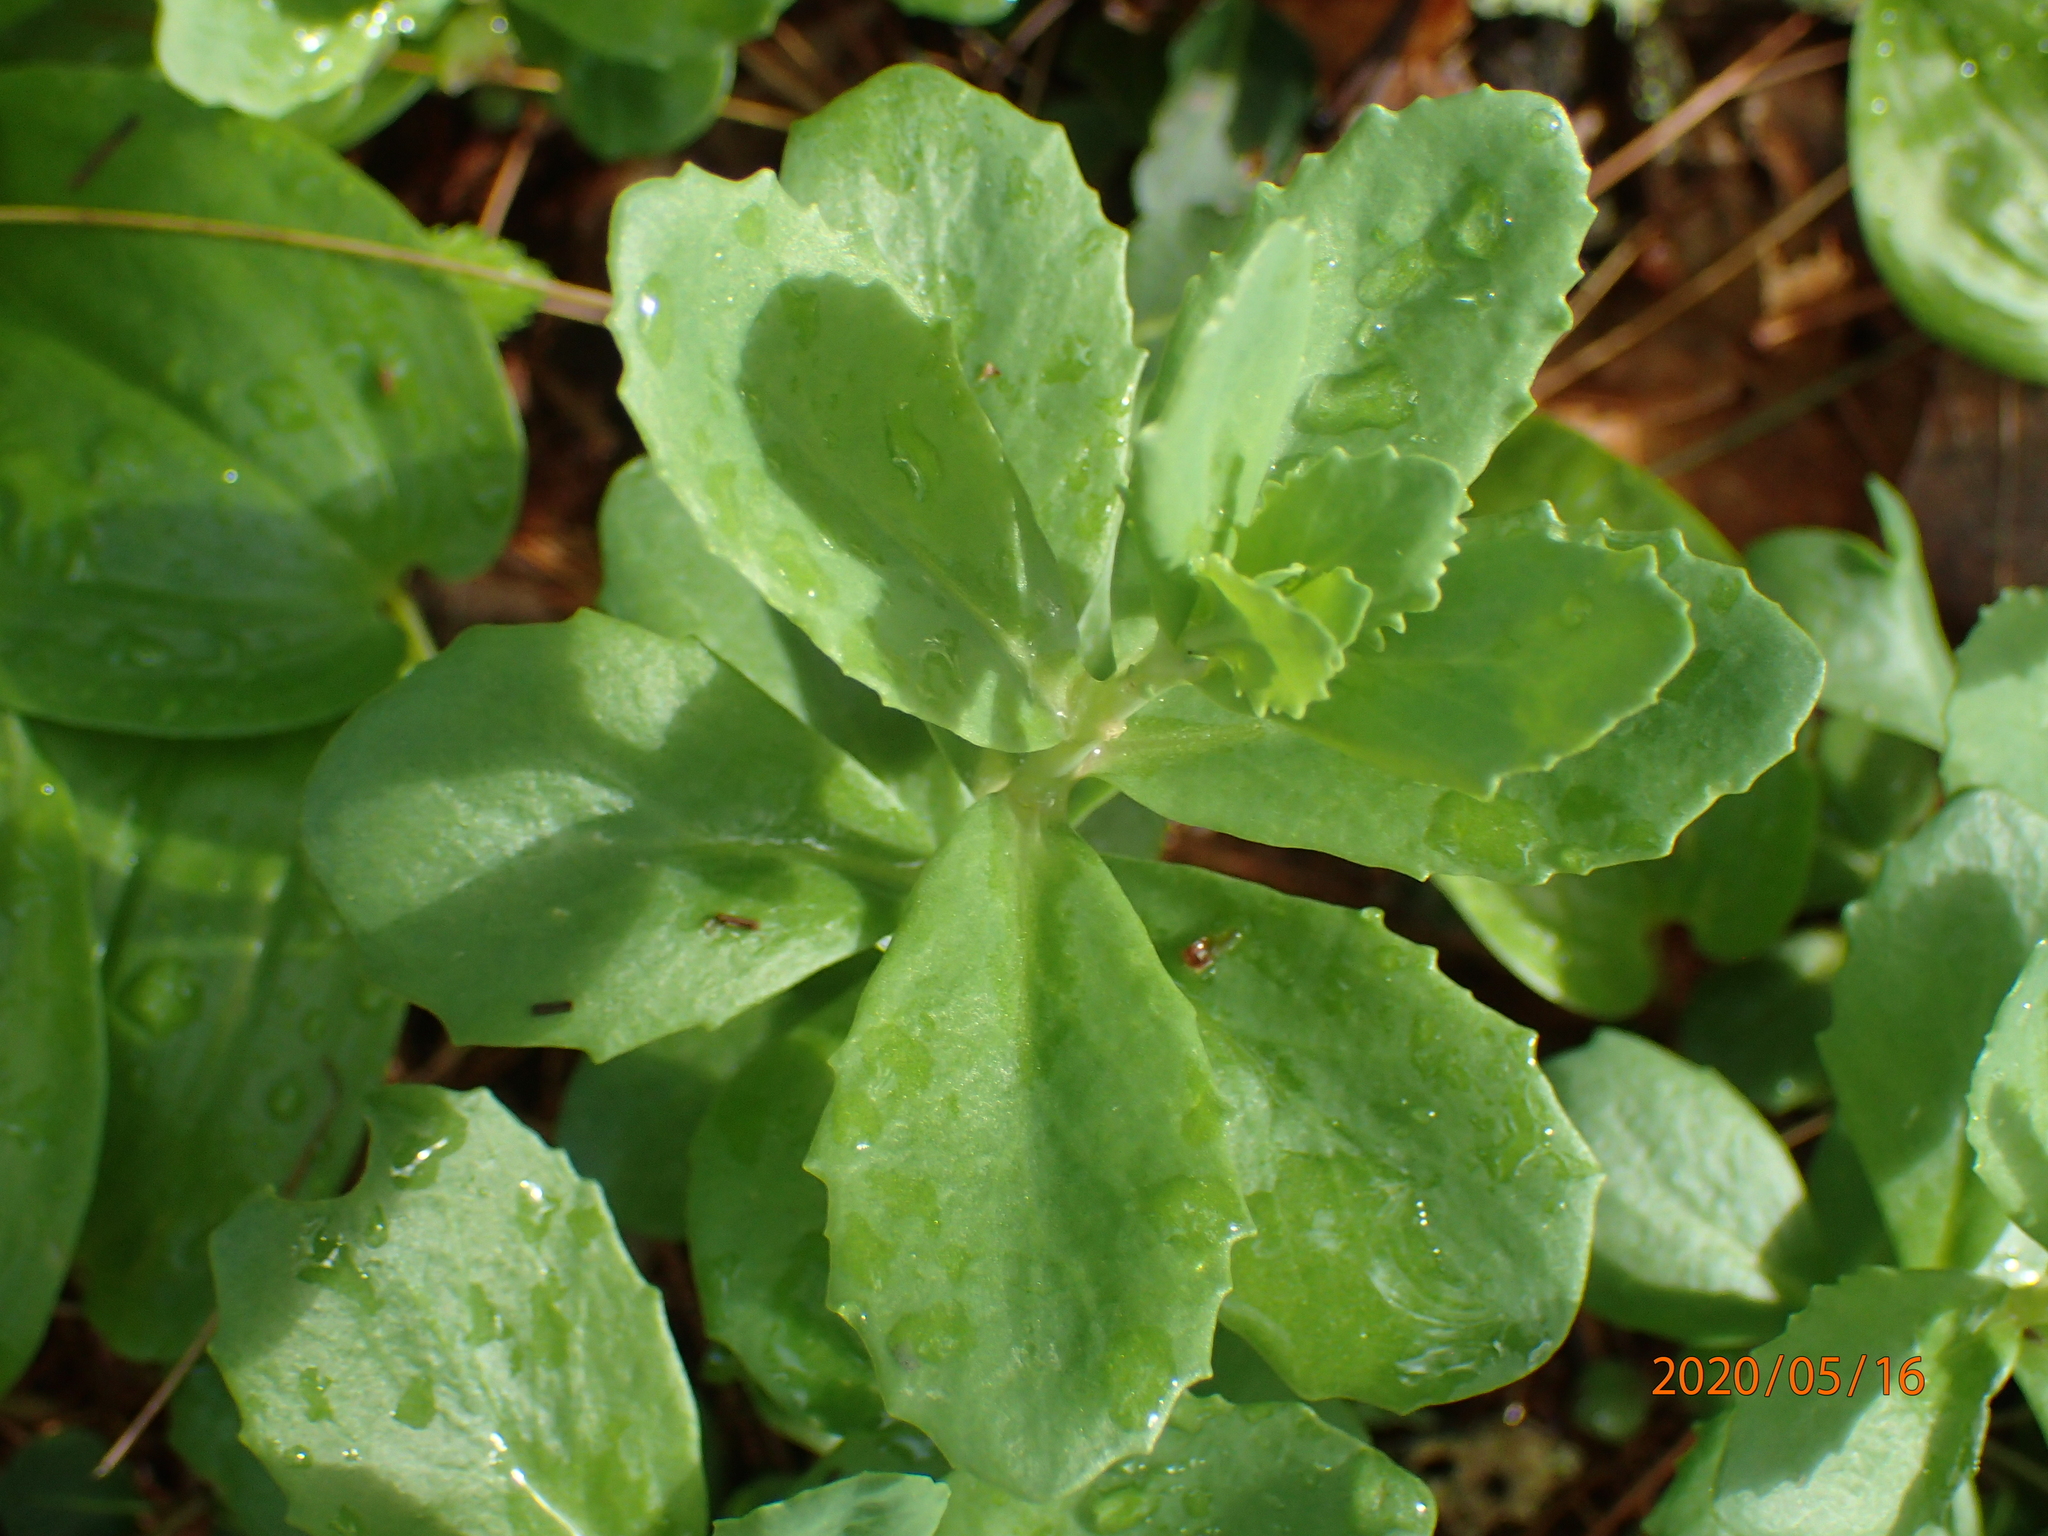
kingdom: Plantae
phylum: Tracheophyta
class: Magnoliopsida
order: Saxifragales
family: Crassulaceae
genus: Hylotelephium
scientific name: Hylotelephium telephium
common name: Live-forever
